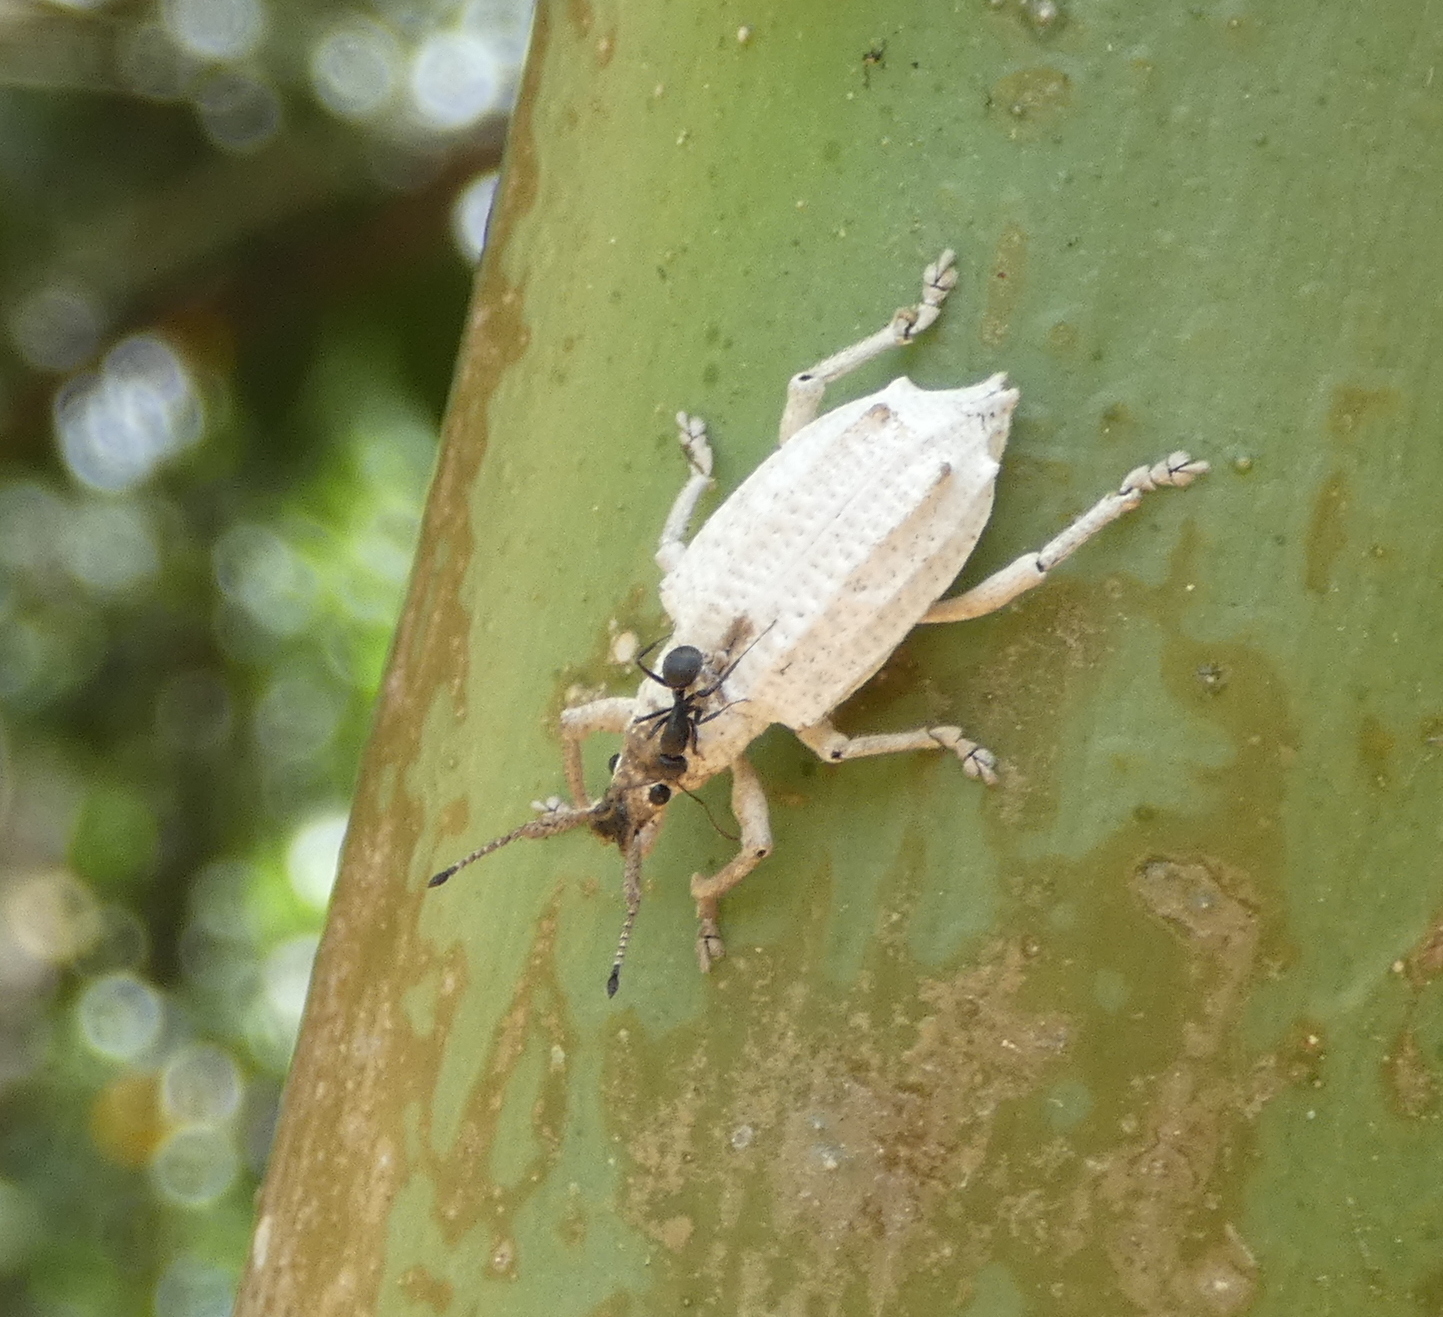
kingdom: Animalia
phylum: Arthropoda
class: Insecta
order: Coleoptera
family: Curculionidae
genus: Compsus
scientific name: Compsus niveus
